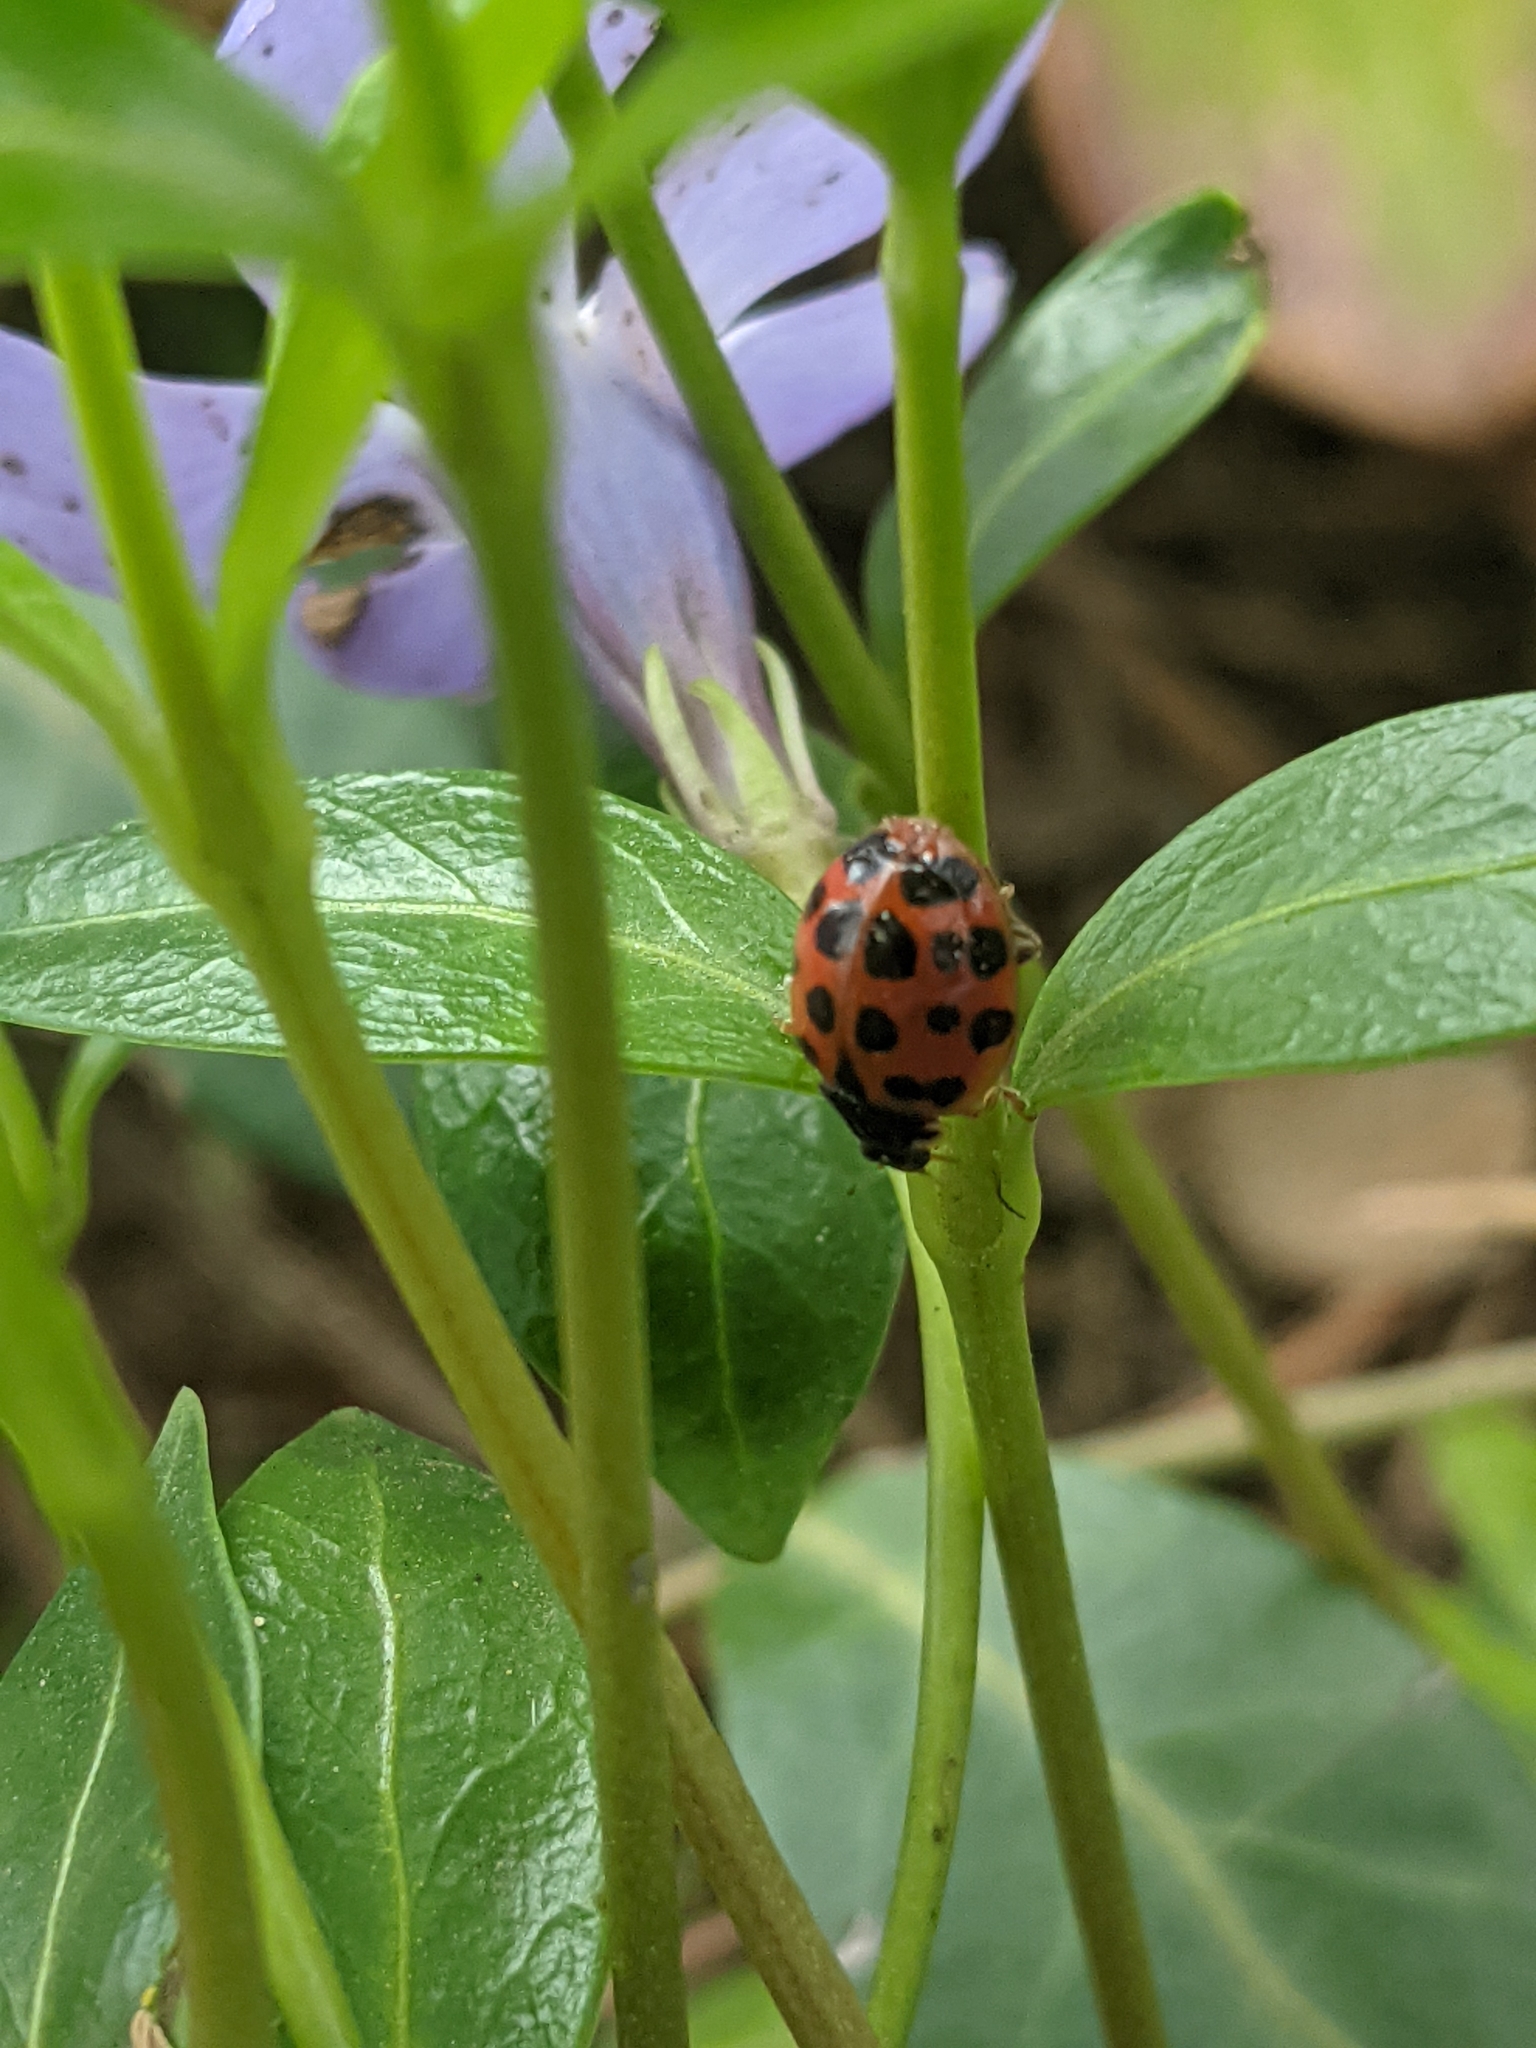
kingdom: Animalia
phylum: Arthropoda
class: Insecta
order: Coleoptera
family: Coccinellidae
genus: Harmonia
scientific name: Harmonia axyridis
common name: Harlequin ladybird
